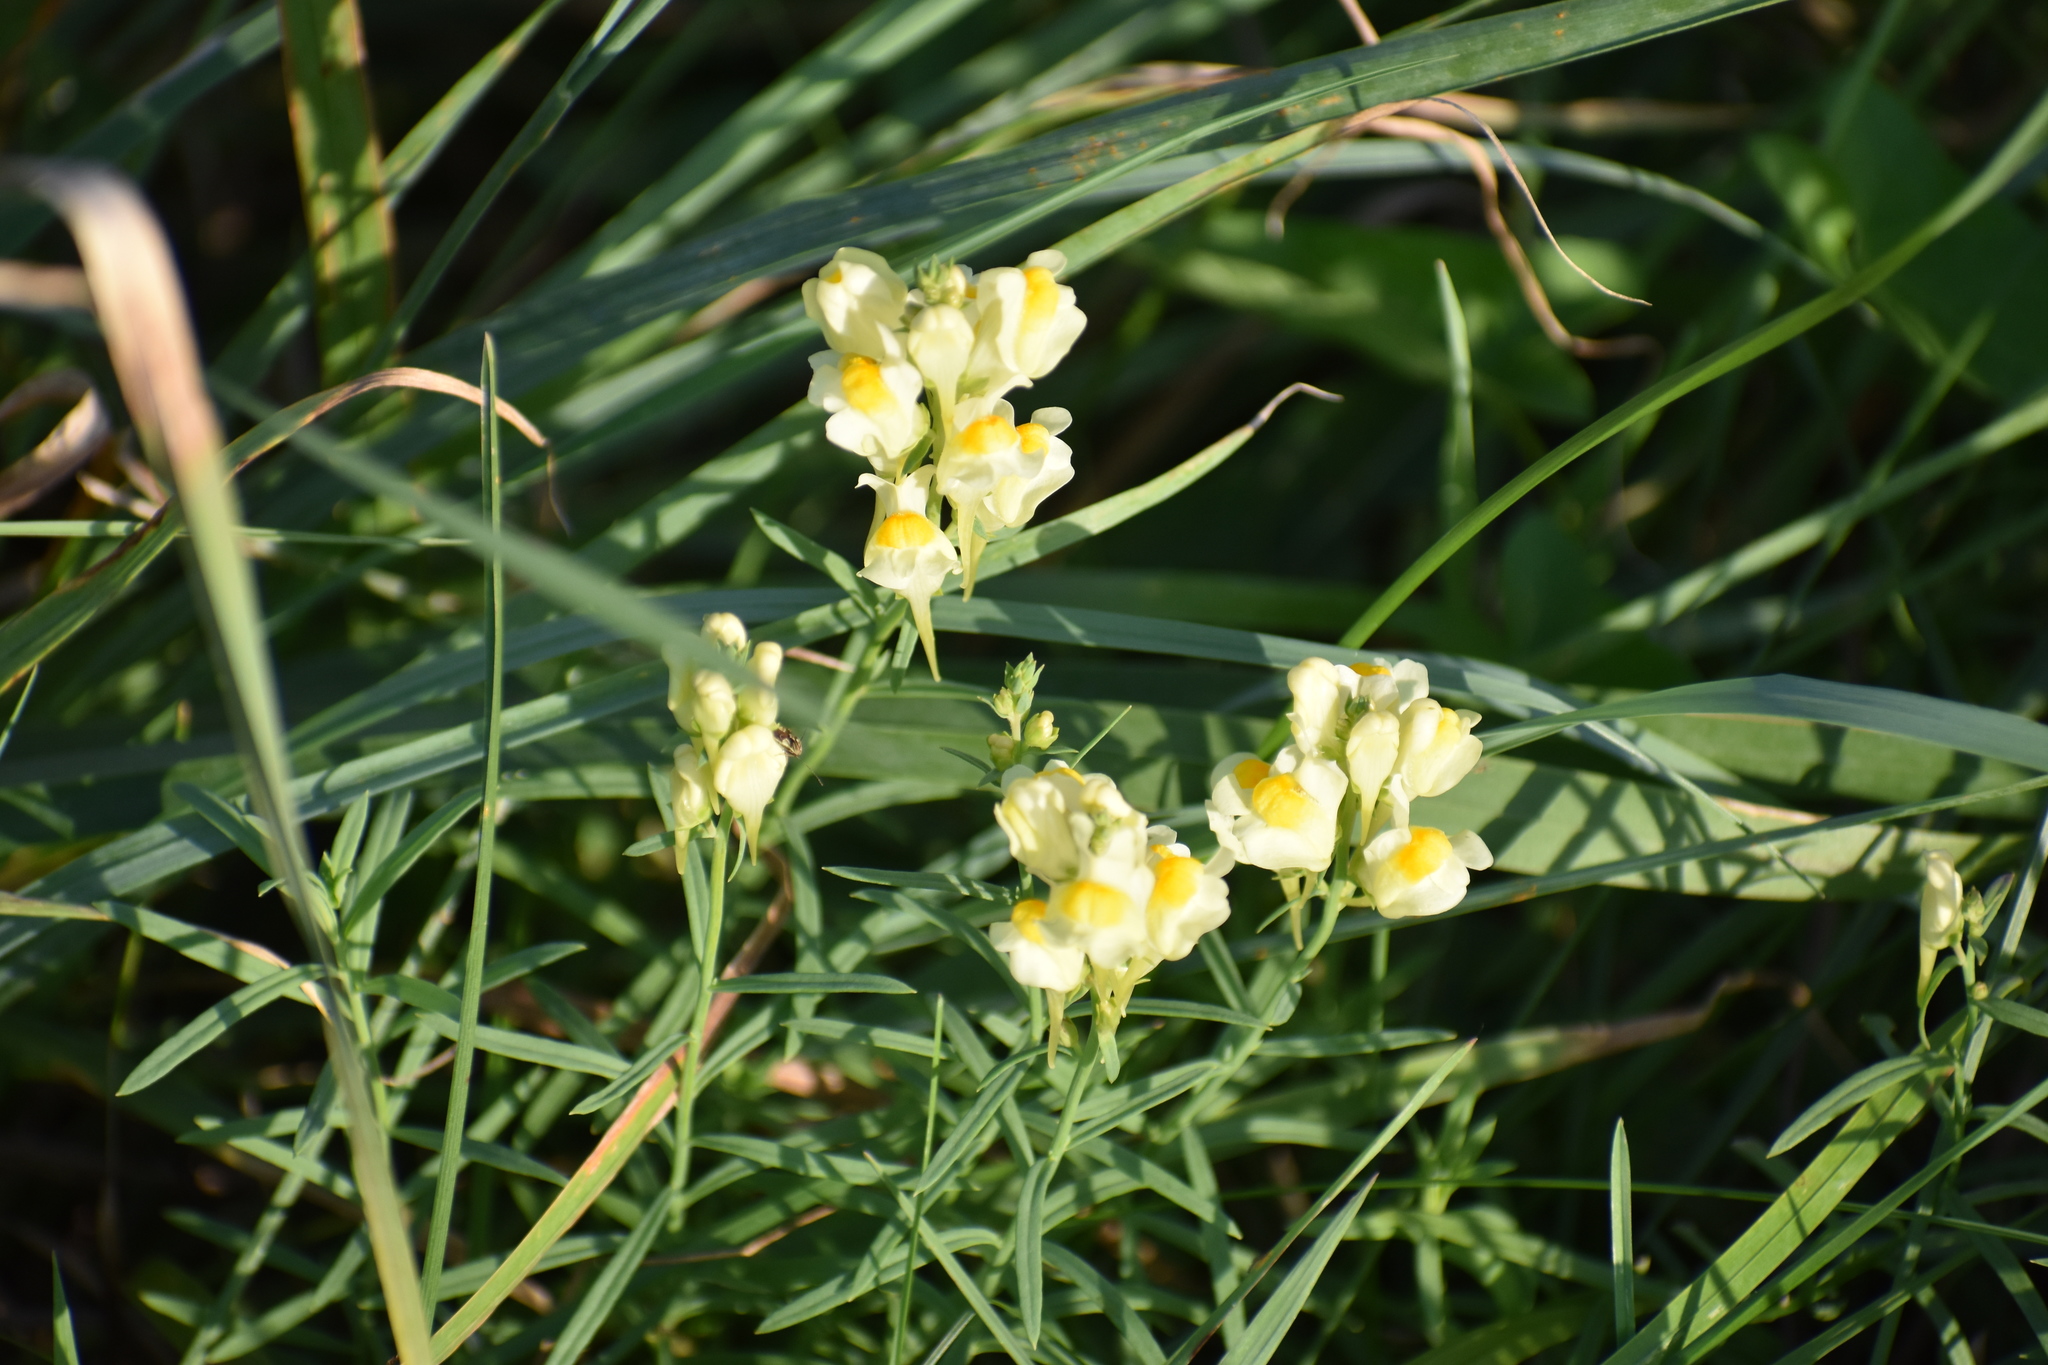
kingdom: Plantae
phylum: Tracheophyta
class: Magnoliopsida
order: Lamiales
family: Plantaginaceae
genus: Linaria
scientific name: Linaria vulgaris
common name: Butter and eggs
